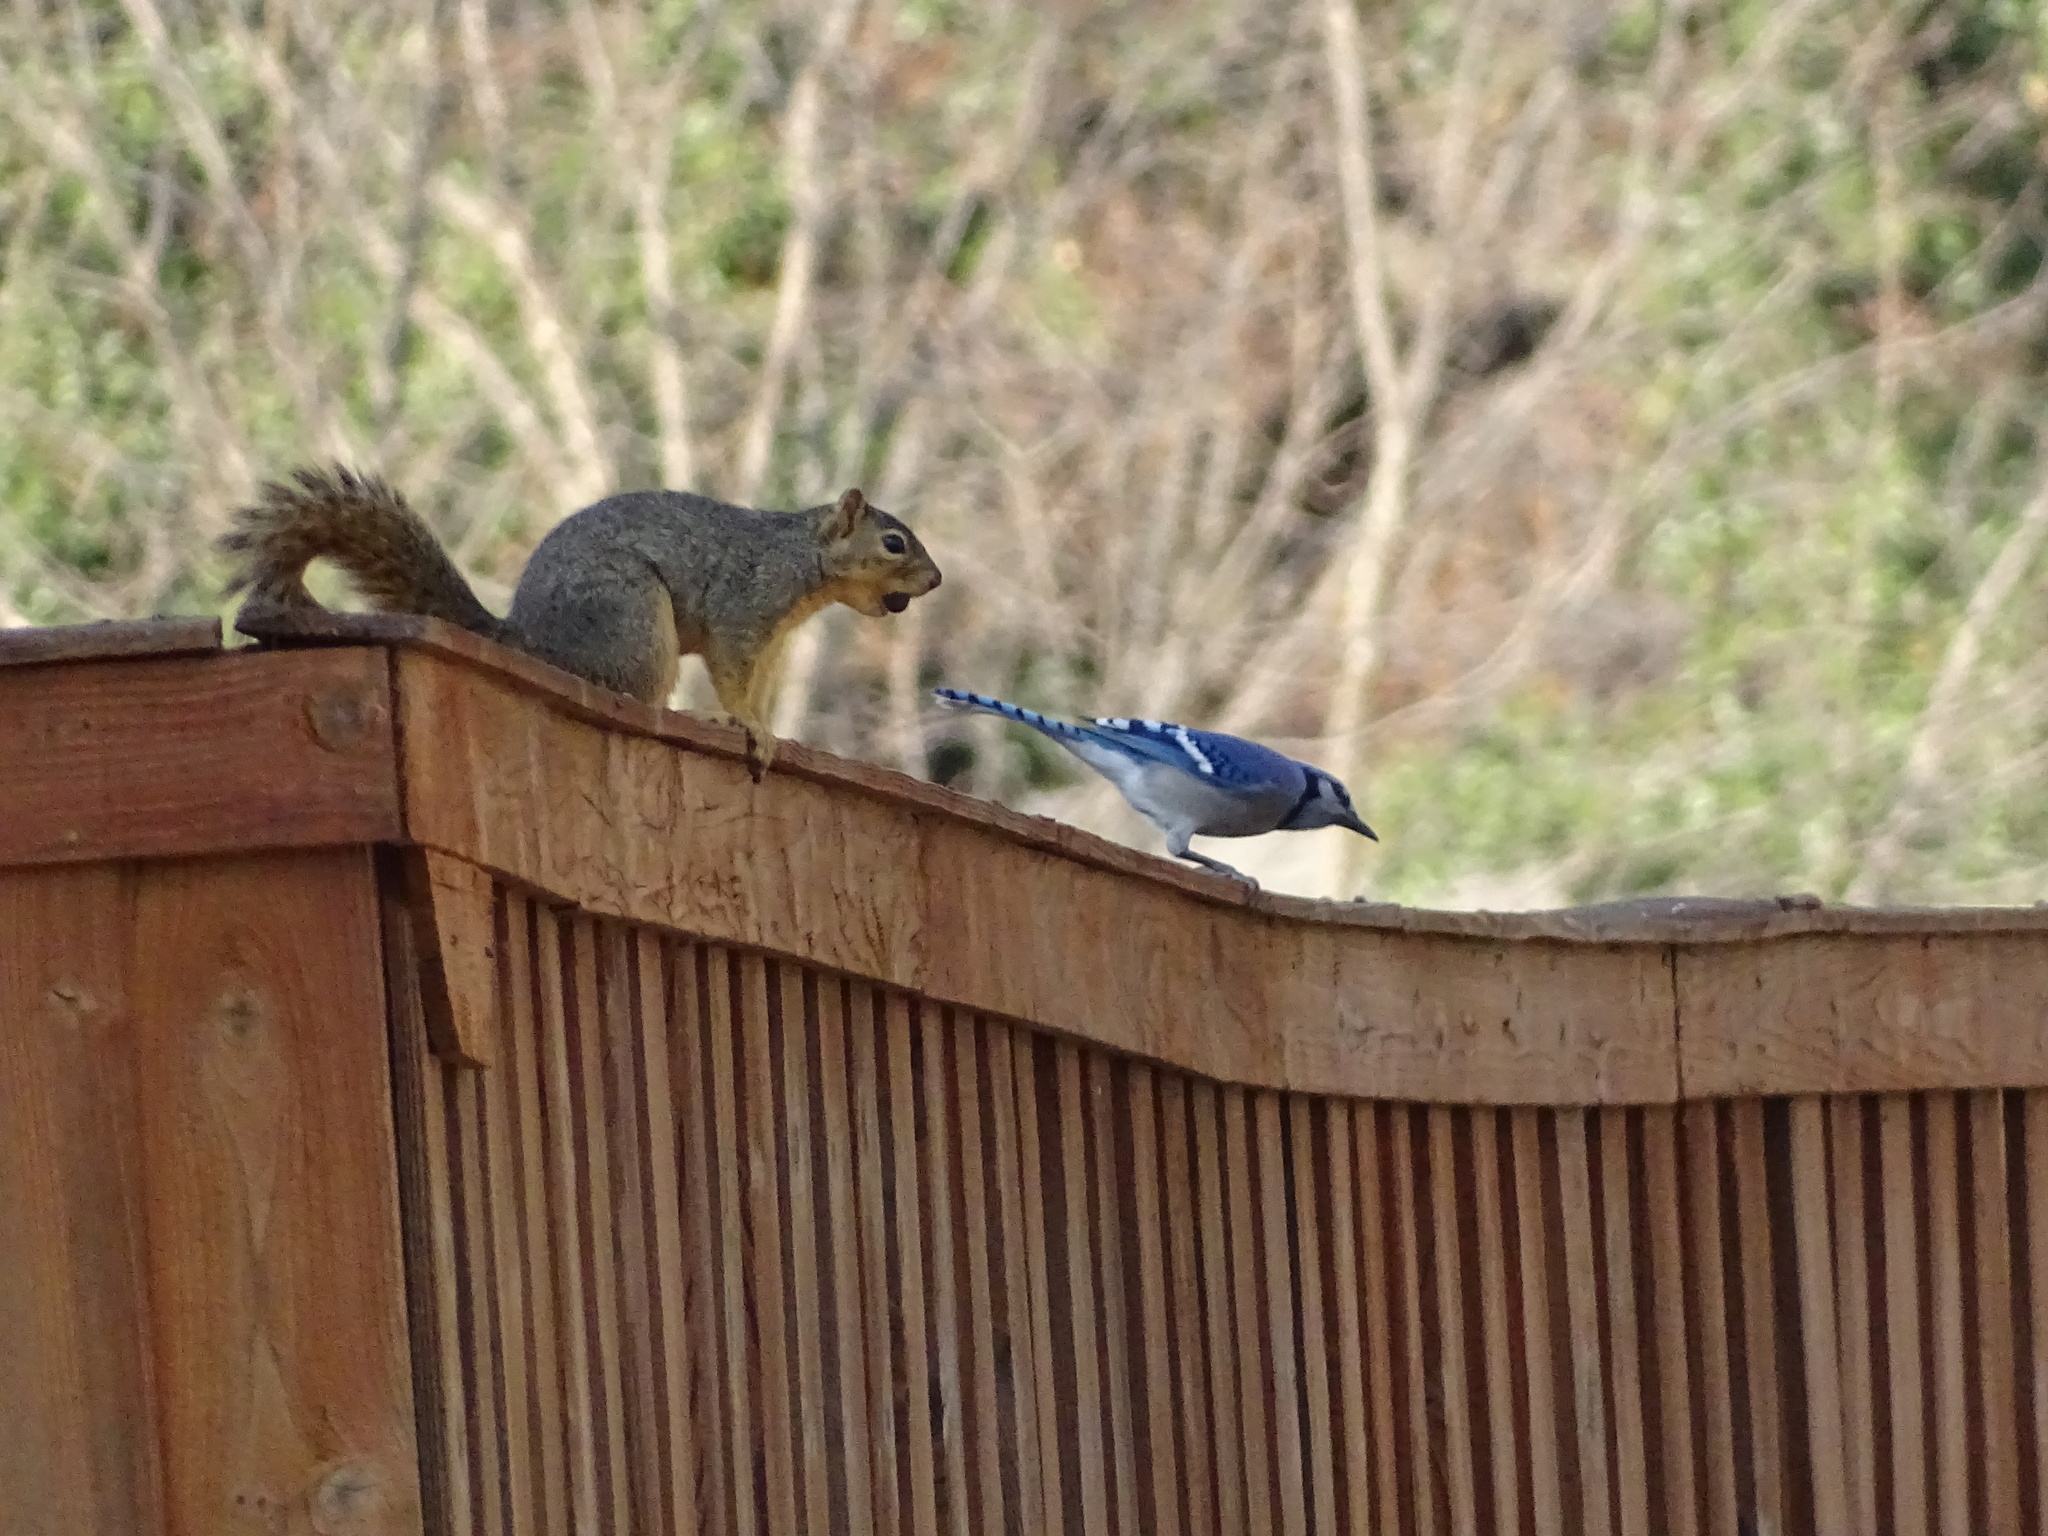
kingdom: Animalia
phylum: Chordata
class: Mammalia
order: Rodentia
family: Sciuridae
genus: Sciurus
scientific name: Sciurus niger
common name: Fox squirrel
